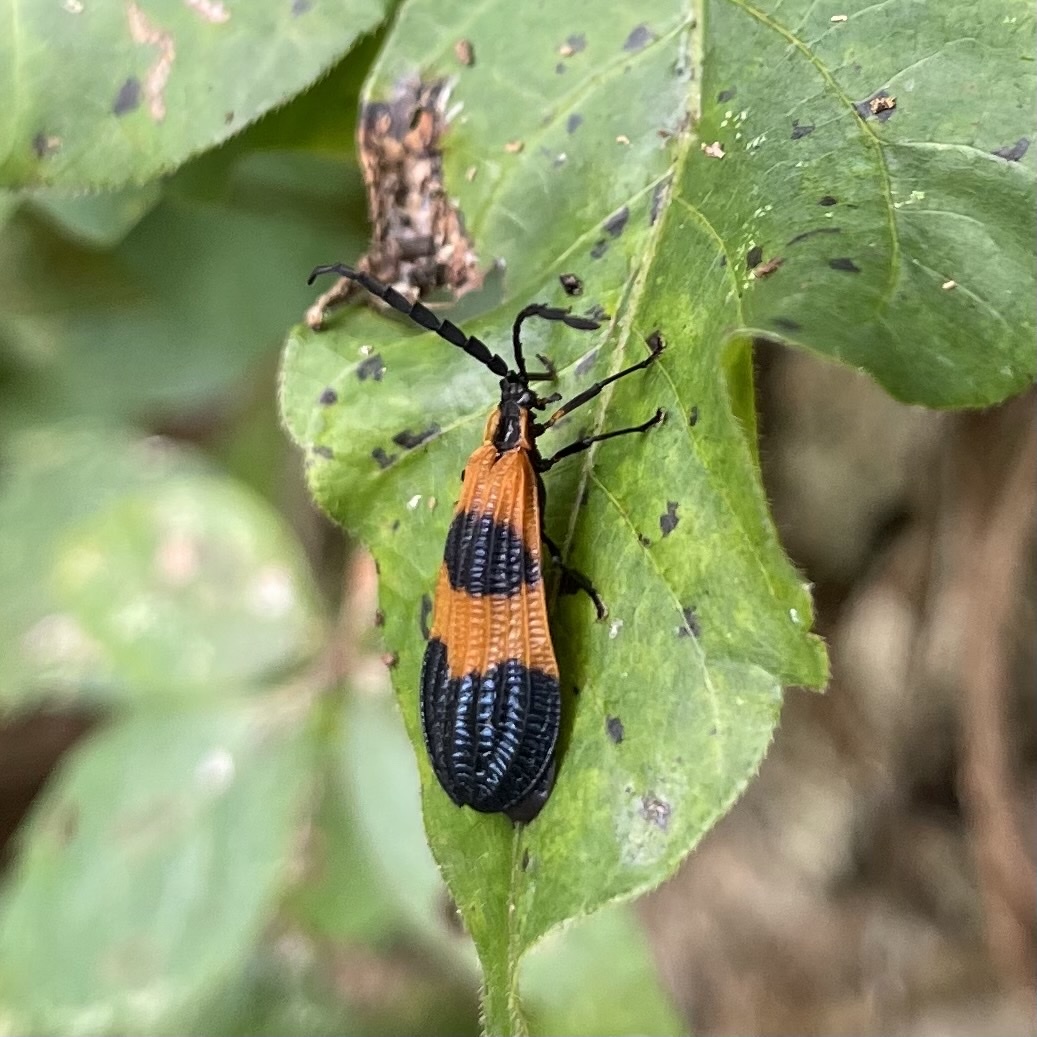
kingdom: Animalia
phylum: Arthropoda
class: Insecta
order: Coleoptera
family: Lycidae
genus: Calopteron
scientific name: Calopteron terminale
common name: End band net-winged beetle
